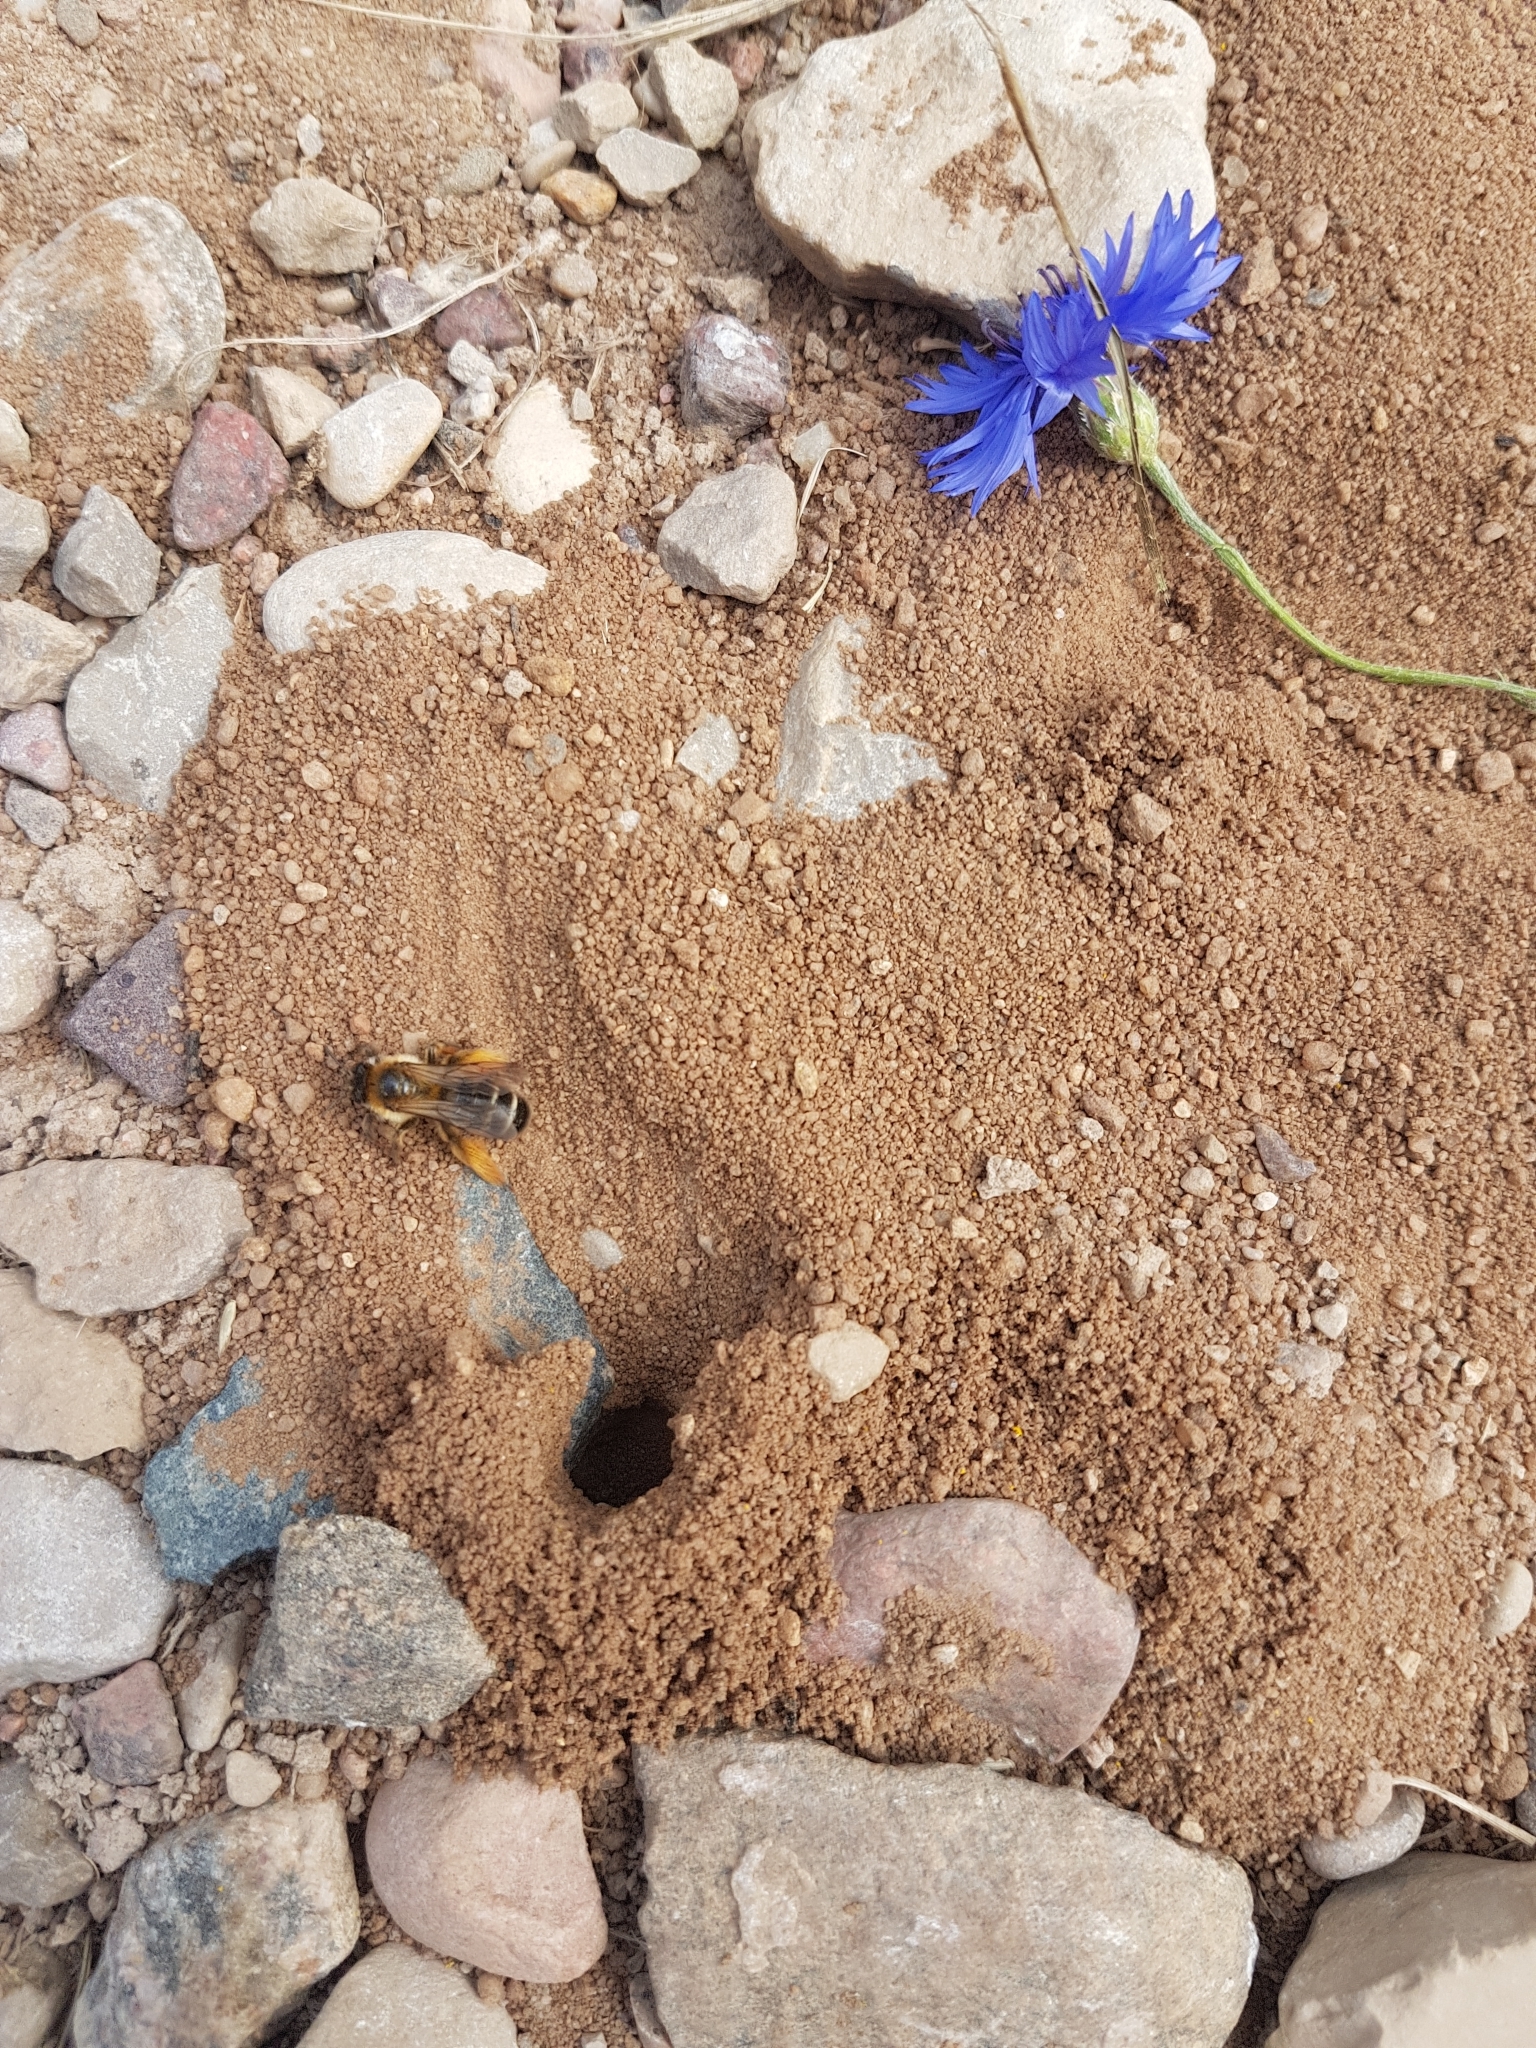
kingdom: Animalia
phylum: Arthropoda
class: Insecta
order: Hymenoptera
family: Melittidae
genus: Dasypoda
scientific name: Dasypoda hirtipes
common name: Pantaloon bee
